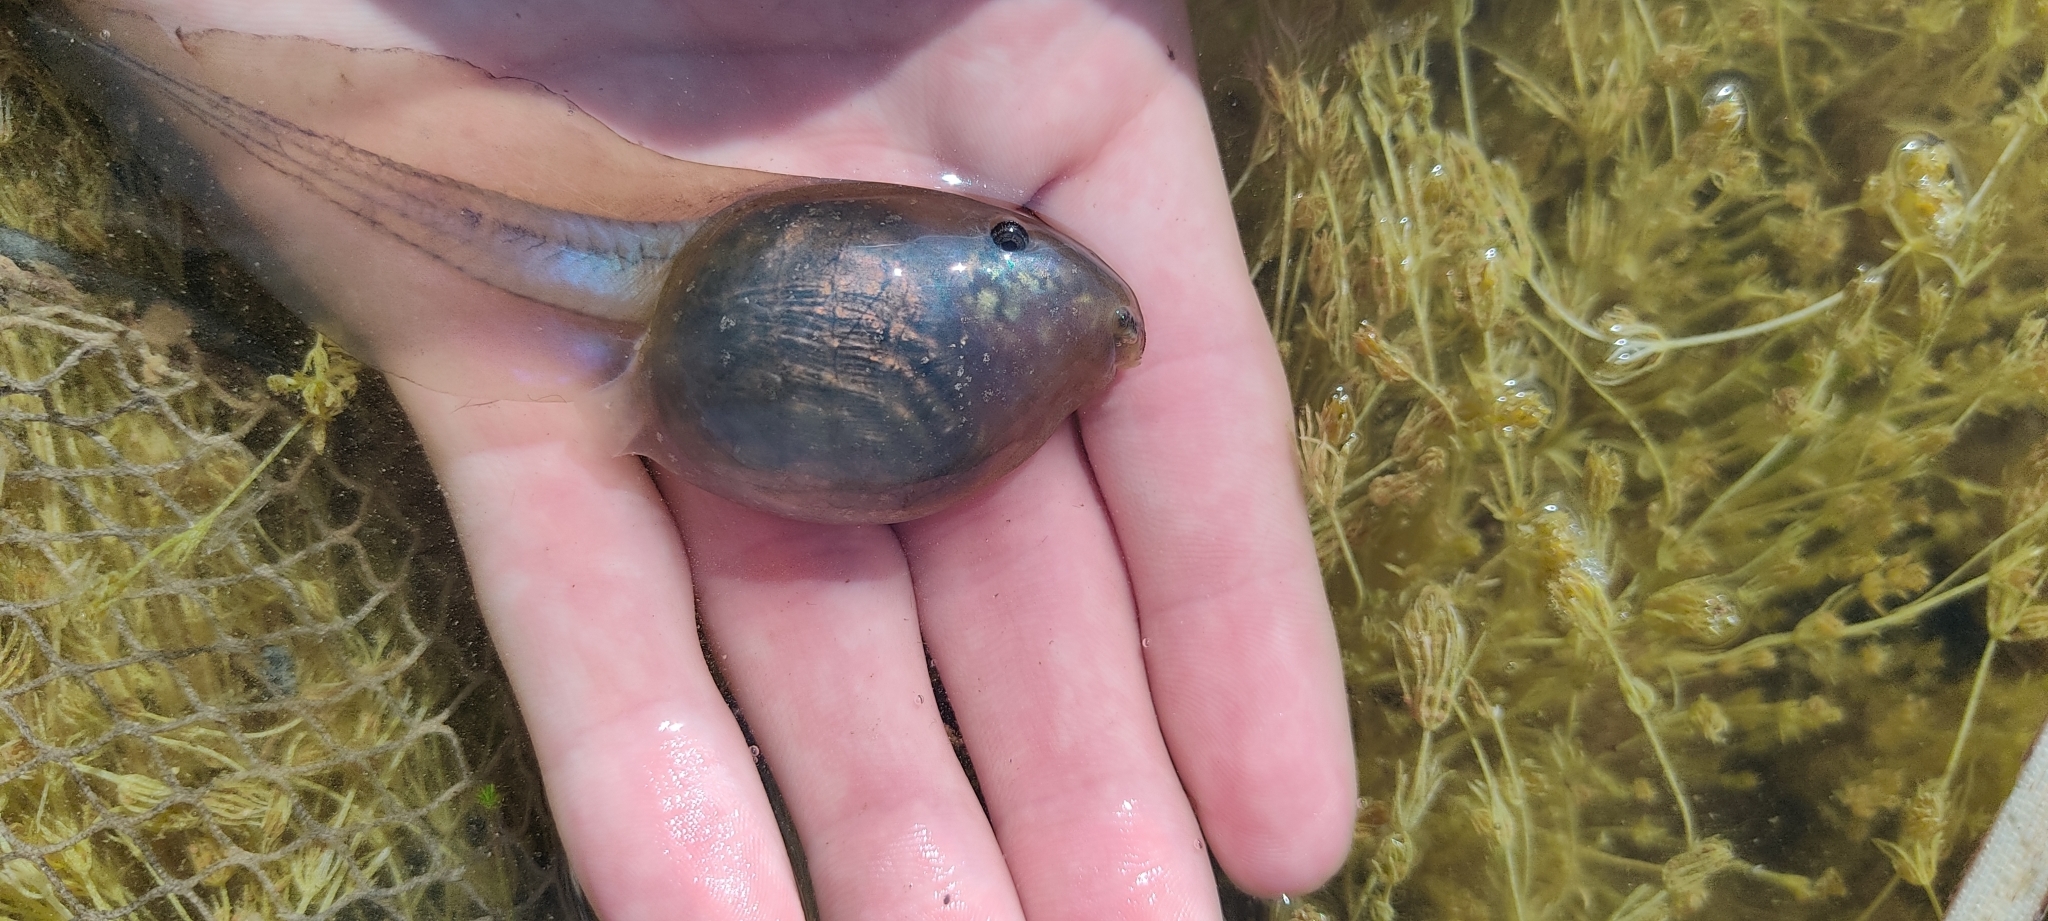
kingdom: Animalia
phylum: Chordata
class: Amphibia
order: Anura
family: Pelobatidae
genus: Pelobates
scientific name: Pelobates cultripes
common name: Western spadefoot
